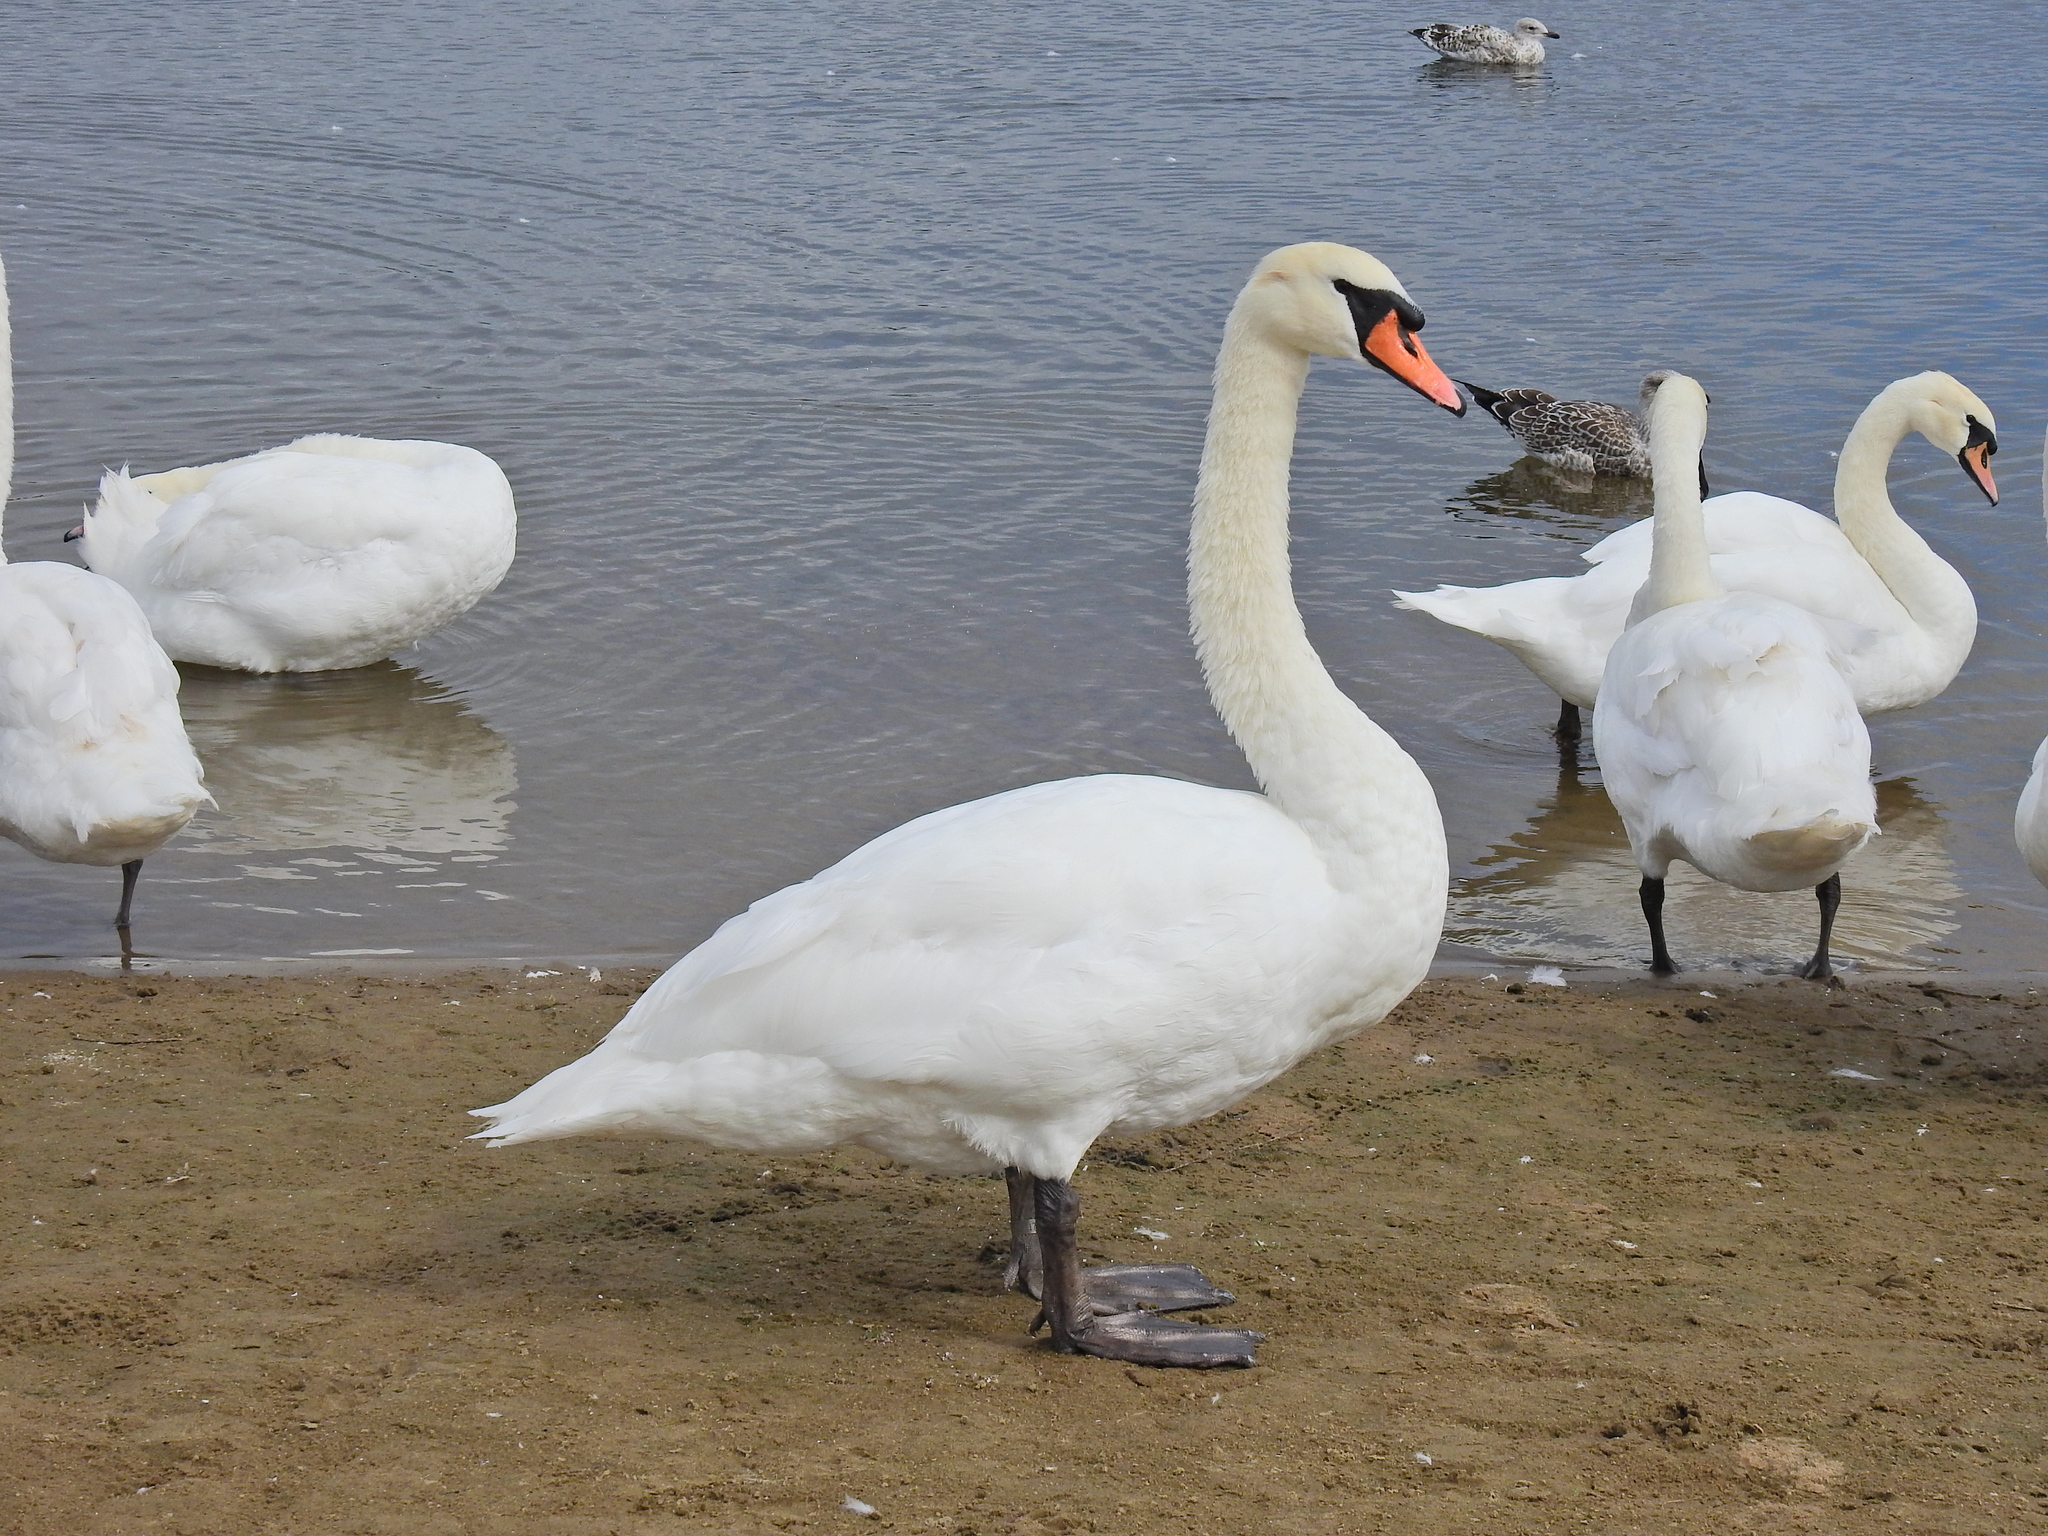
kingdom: Animalia
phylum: Chordata
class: Aves
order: Anseriformes
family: Anatidae
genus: Cygnus
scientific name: Cygnus olor
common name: Mute swan
